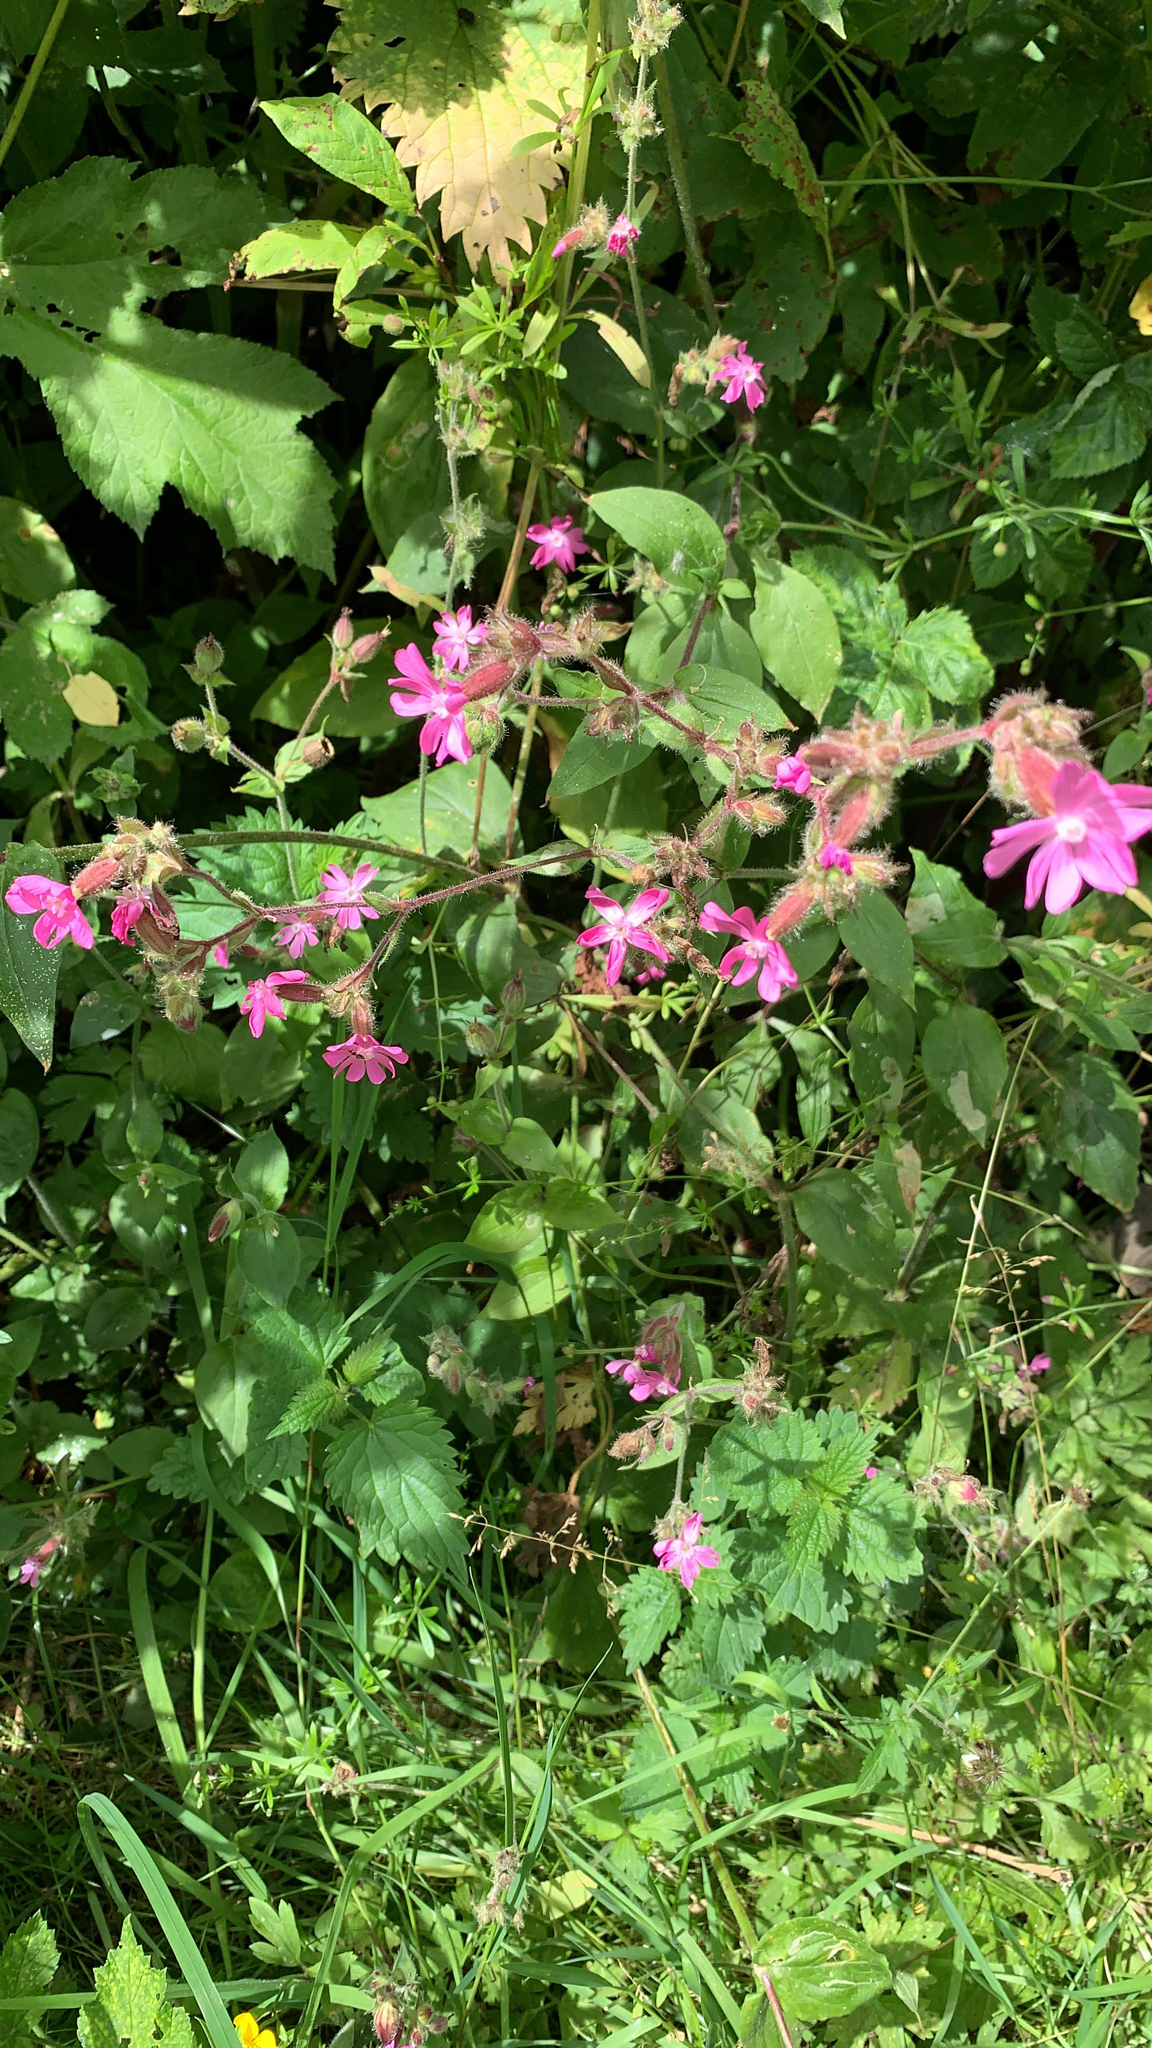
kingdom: Plantae
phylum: Tracheophyta
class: Magnoliopsida
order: Caryophyllales
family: Caryophyllaceae
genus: Silene
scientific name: Silene dioica
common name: Red campion
